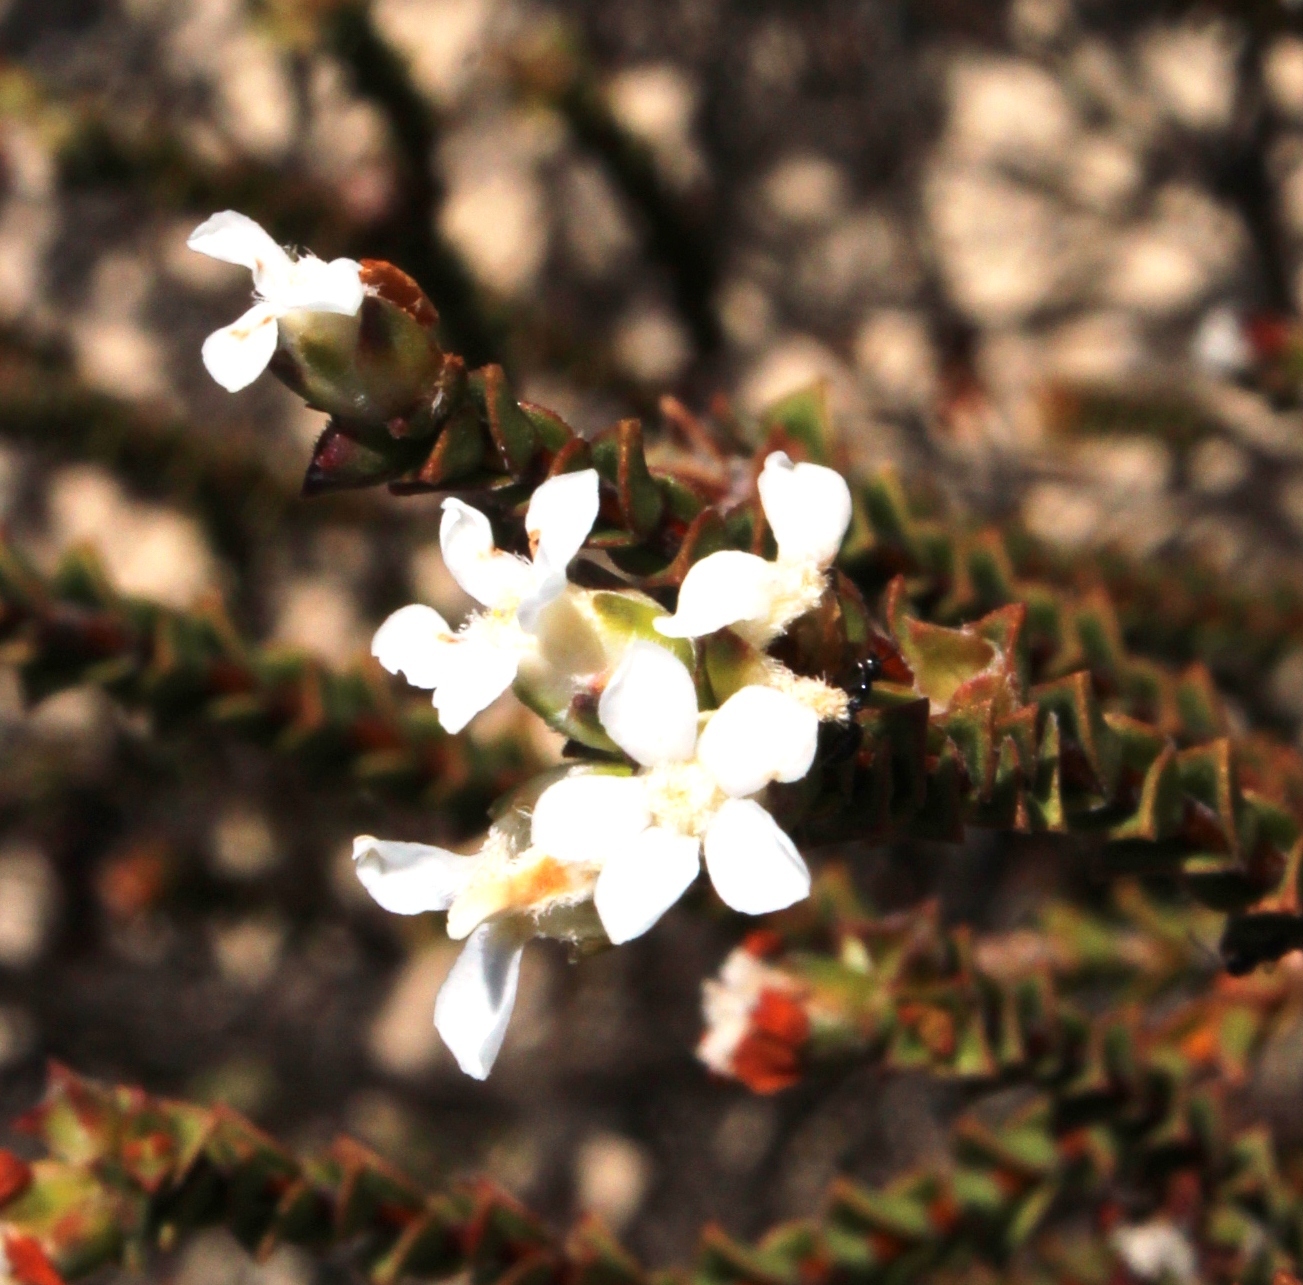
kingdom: Plantae
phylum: Tracheophyta
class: Magnoliopsida
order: Sapindales
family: Rutaceae
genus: Euchaetis
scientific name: Euchaetis pungens
